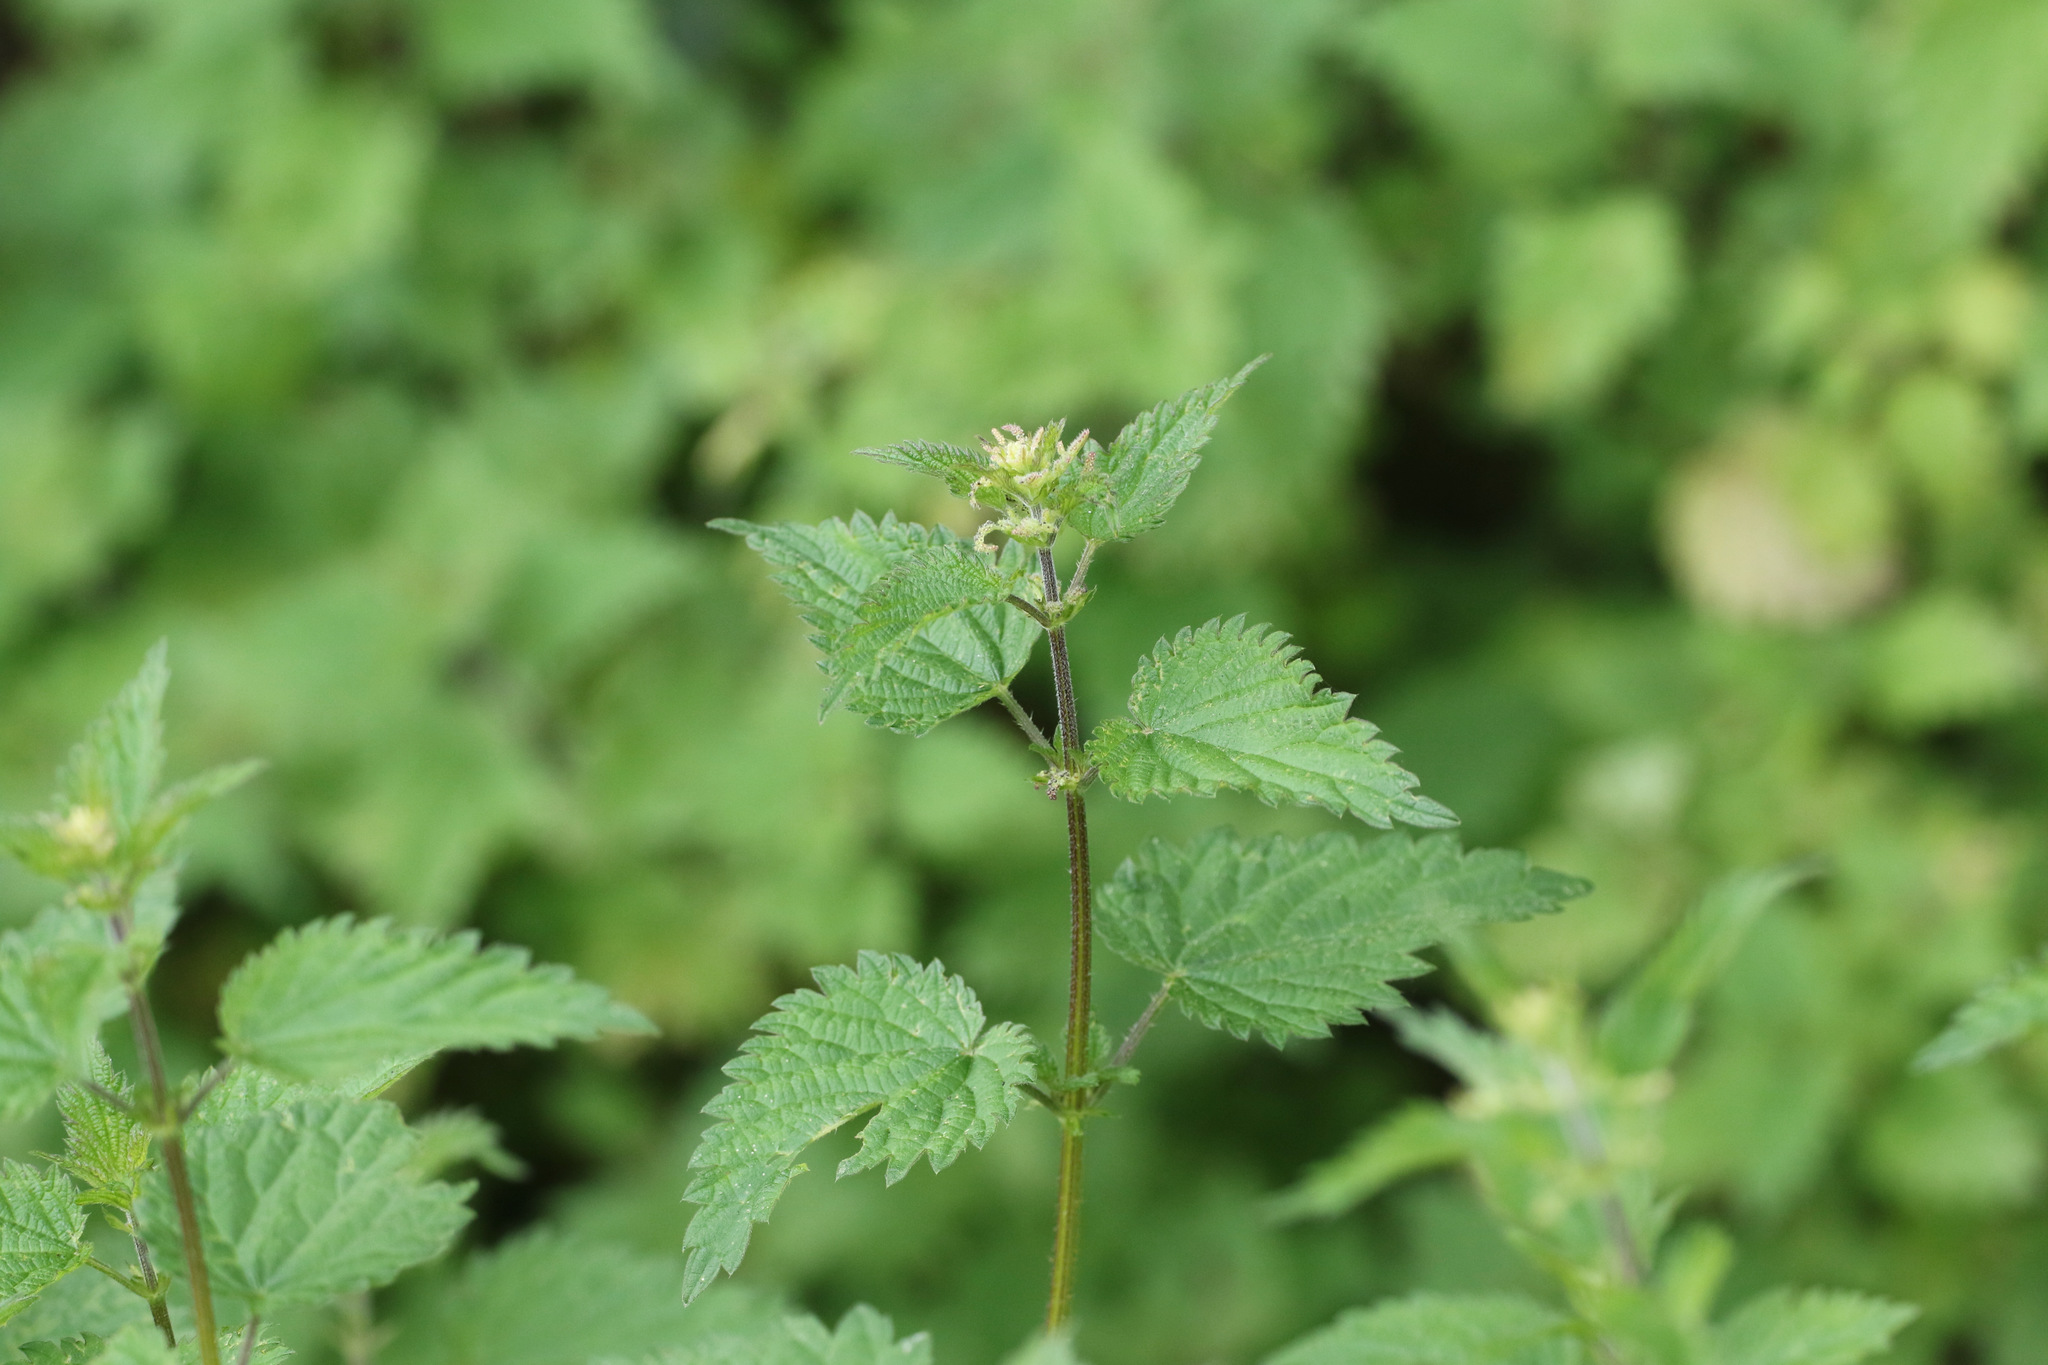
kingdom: Plantae
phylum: Tracheophyta
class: Magnoliopsida
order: Rosales
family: Urticaceae
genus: Urtica
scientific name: Urtica dioica
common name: Common nettle
